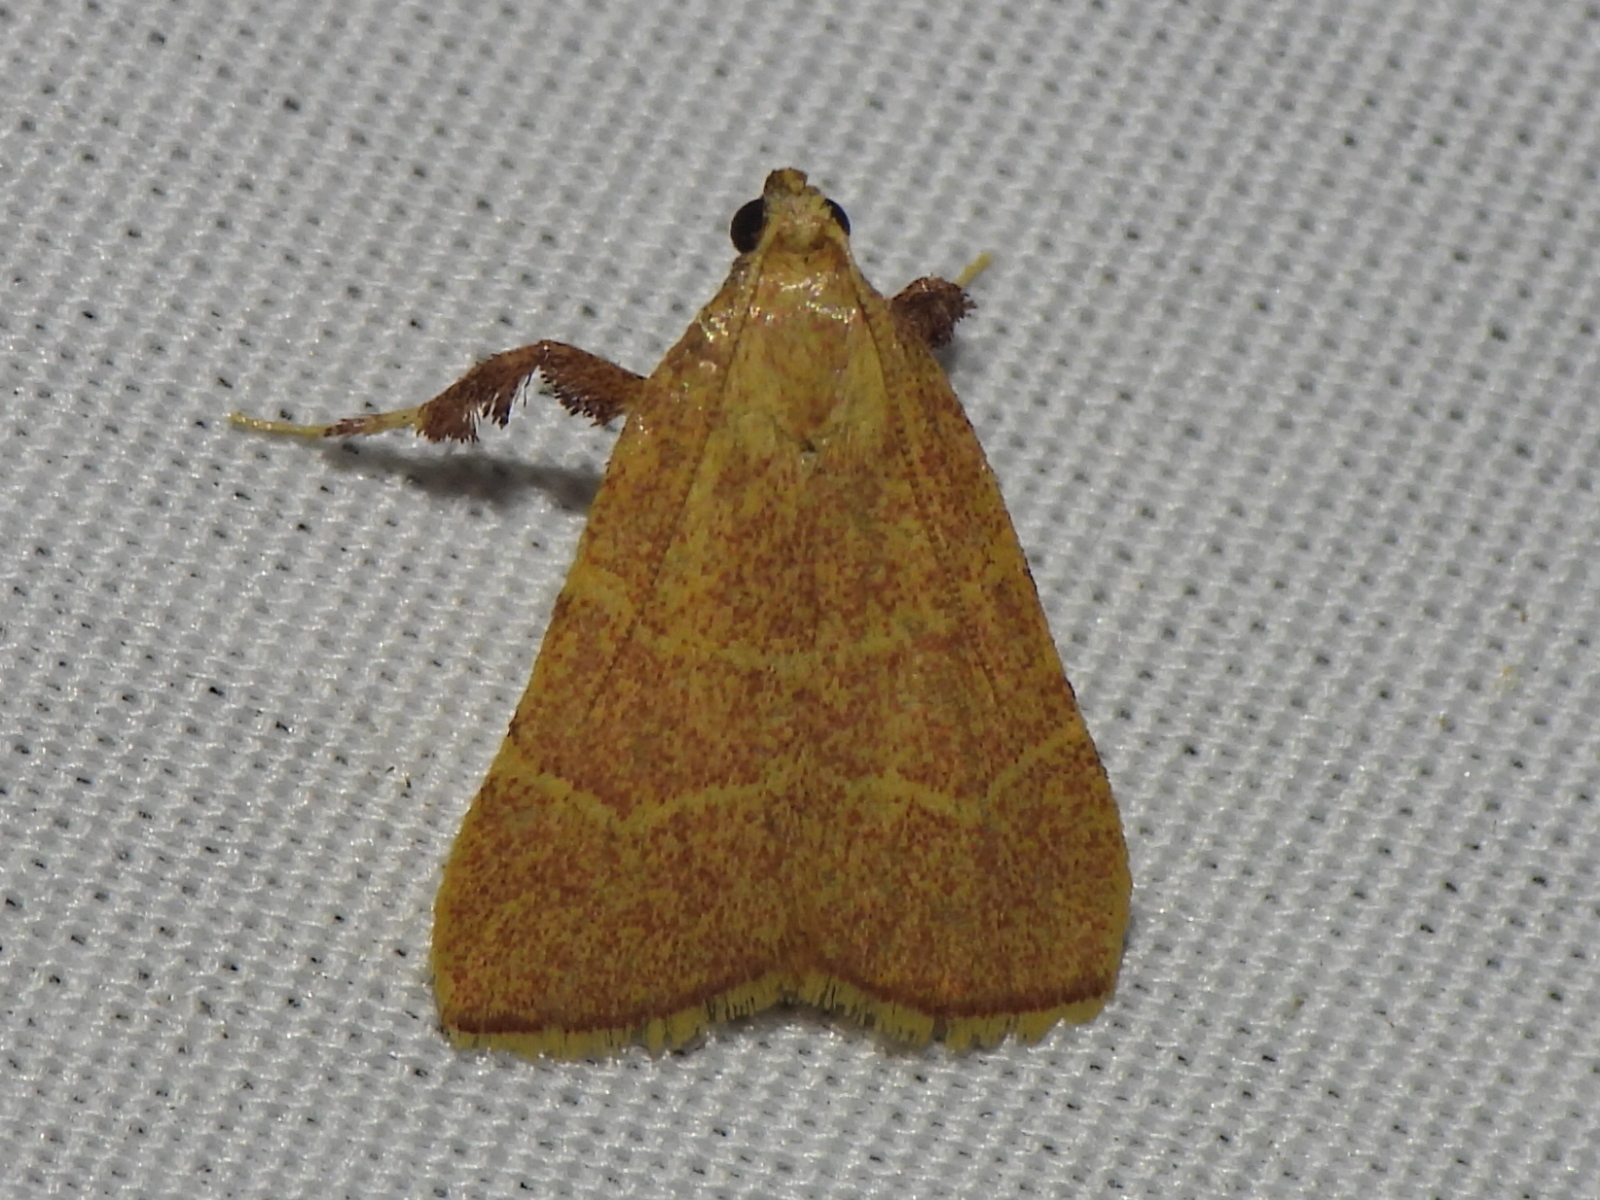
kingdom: Animalia
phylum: Arthropoda
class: Insecta
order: Lepidoptera
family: Pyralidae
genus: Parachma
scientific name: Parachma ochracealis
